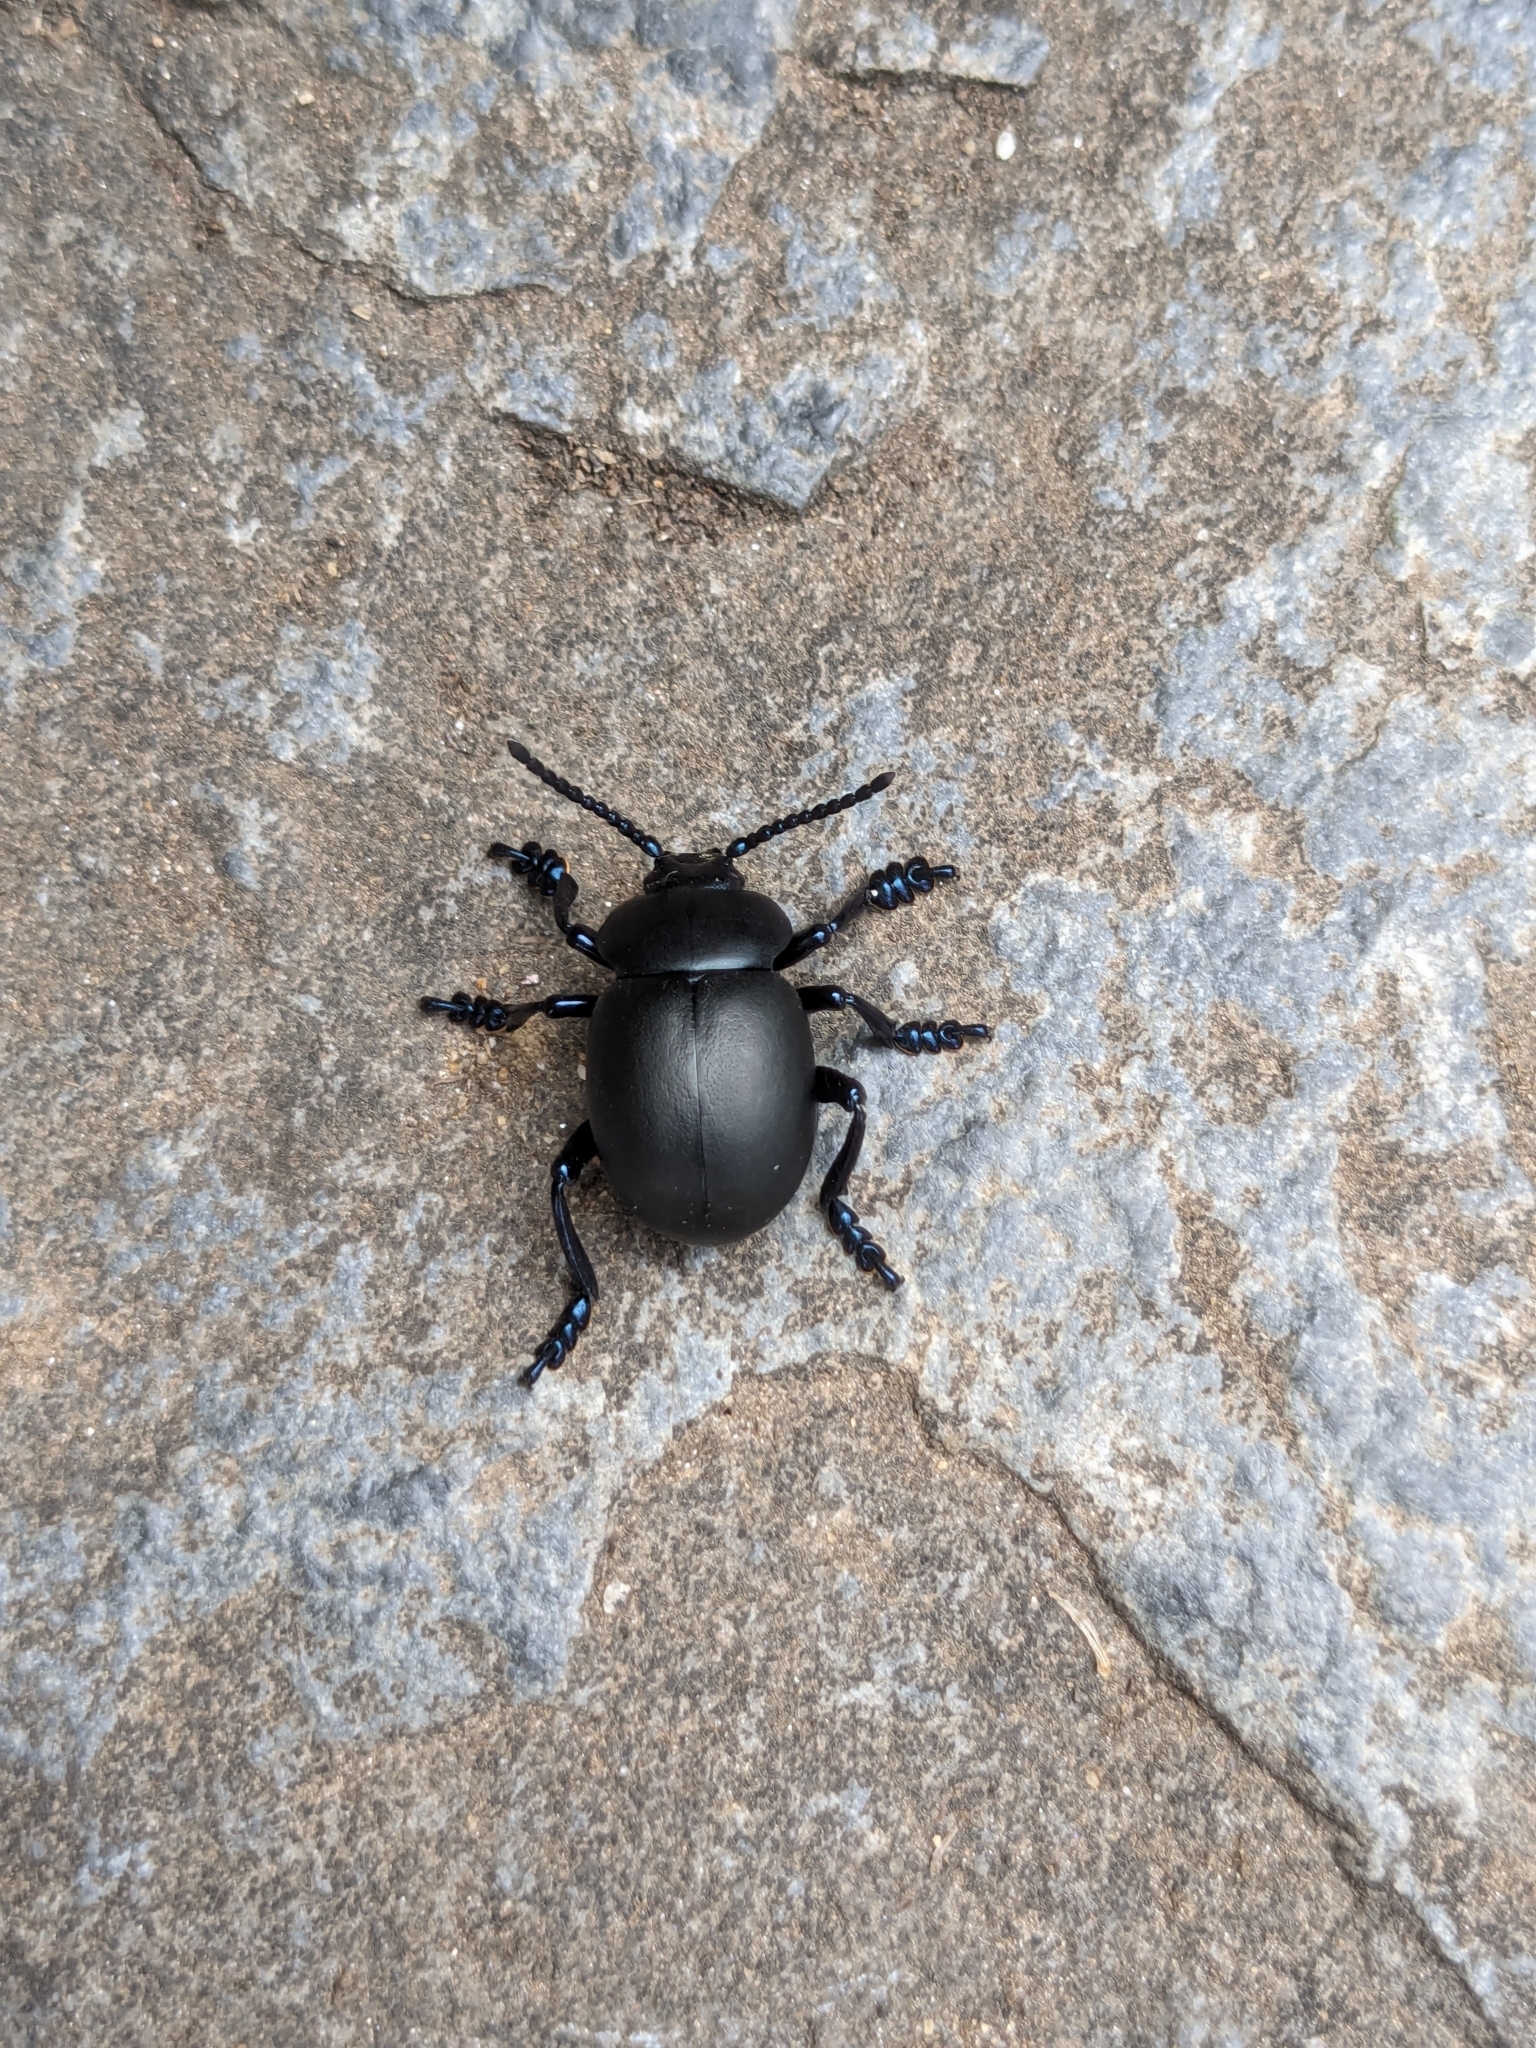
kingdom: Animalia
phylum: Arthropoda
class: Insecta
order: Coleoptera
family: Chrysomelidae
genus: Timarcha
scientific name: Timarcha tenebricosa
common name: Bloody-nosed beetle
